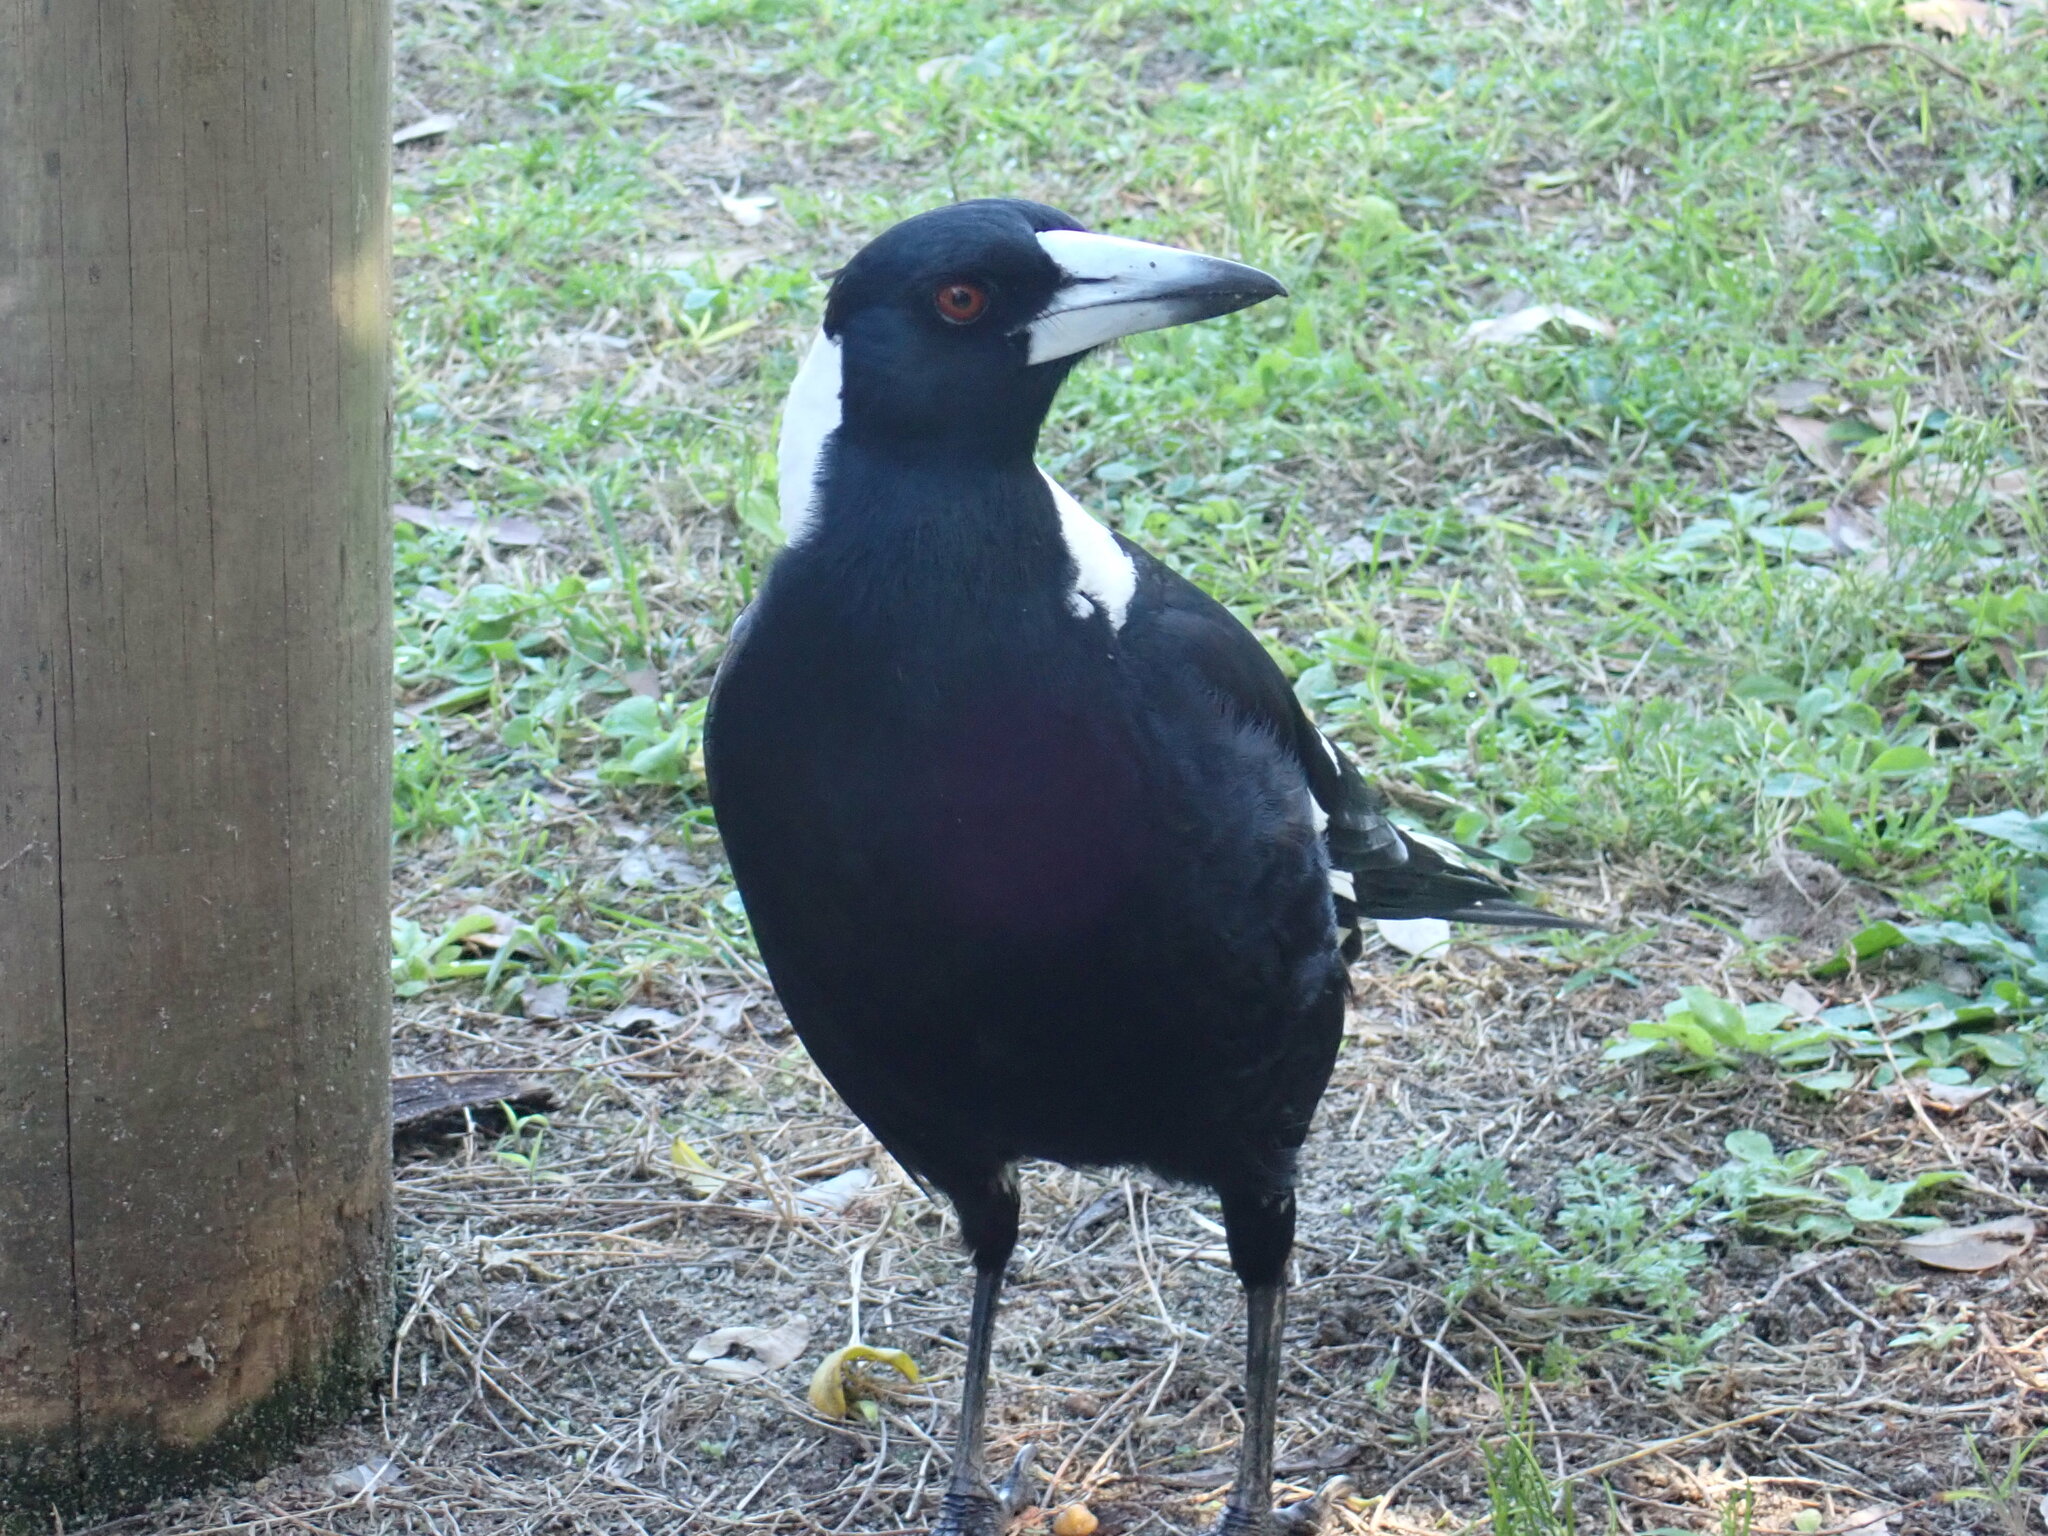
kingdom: Animalia
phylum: Chordata
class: Aves
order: Passeriformes
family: Cracticidae
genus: Gymnorhina
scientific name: Gymnorhina tibicen
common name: Australian magpie
